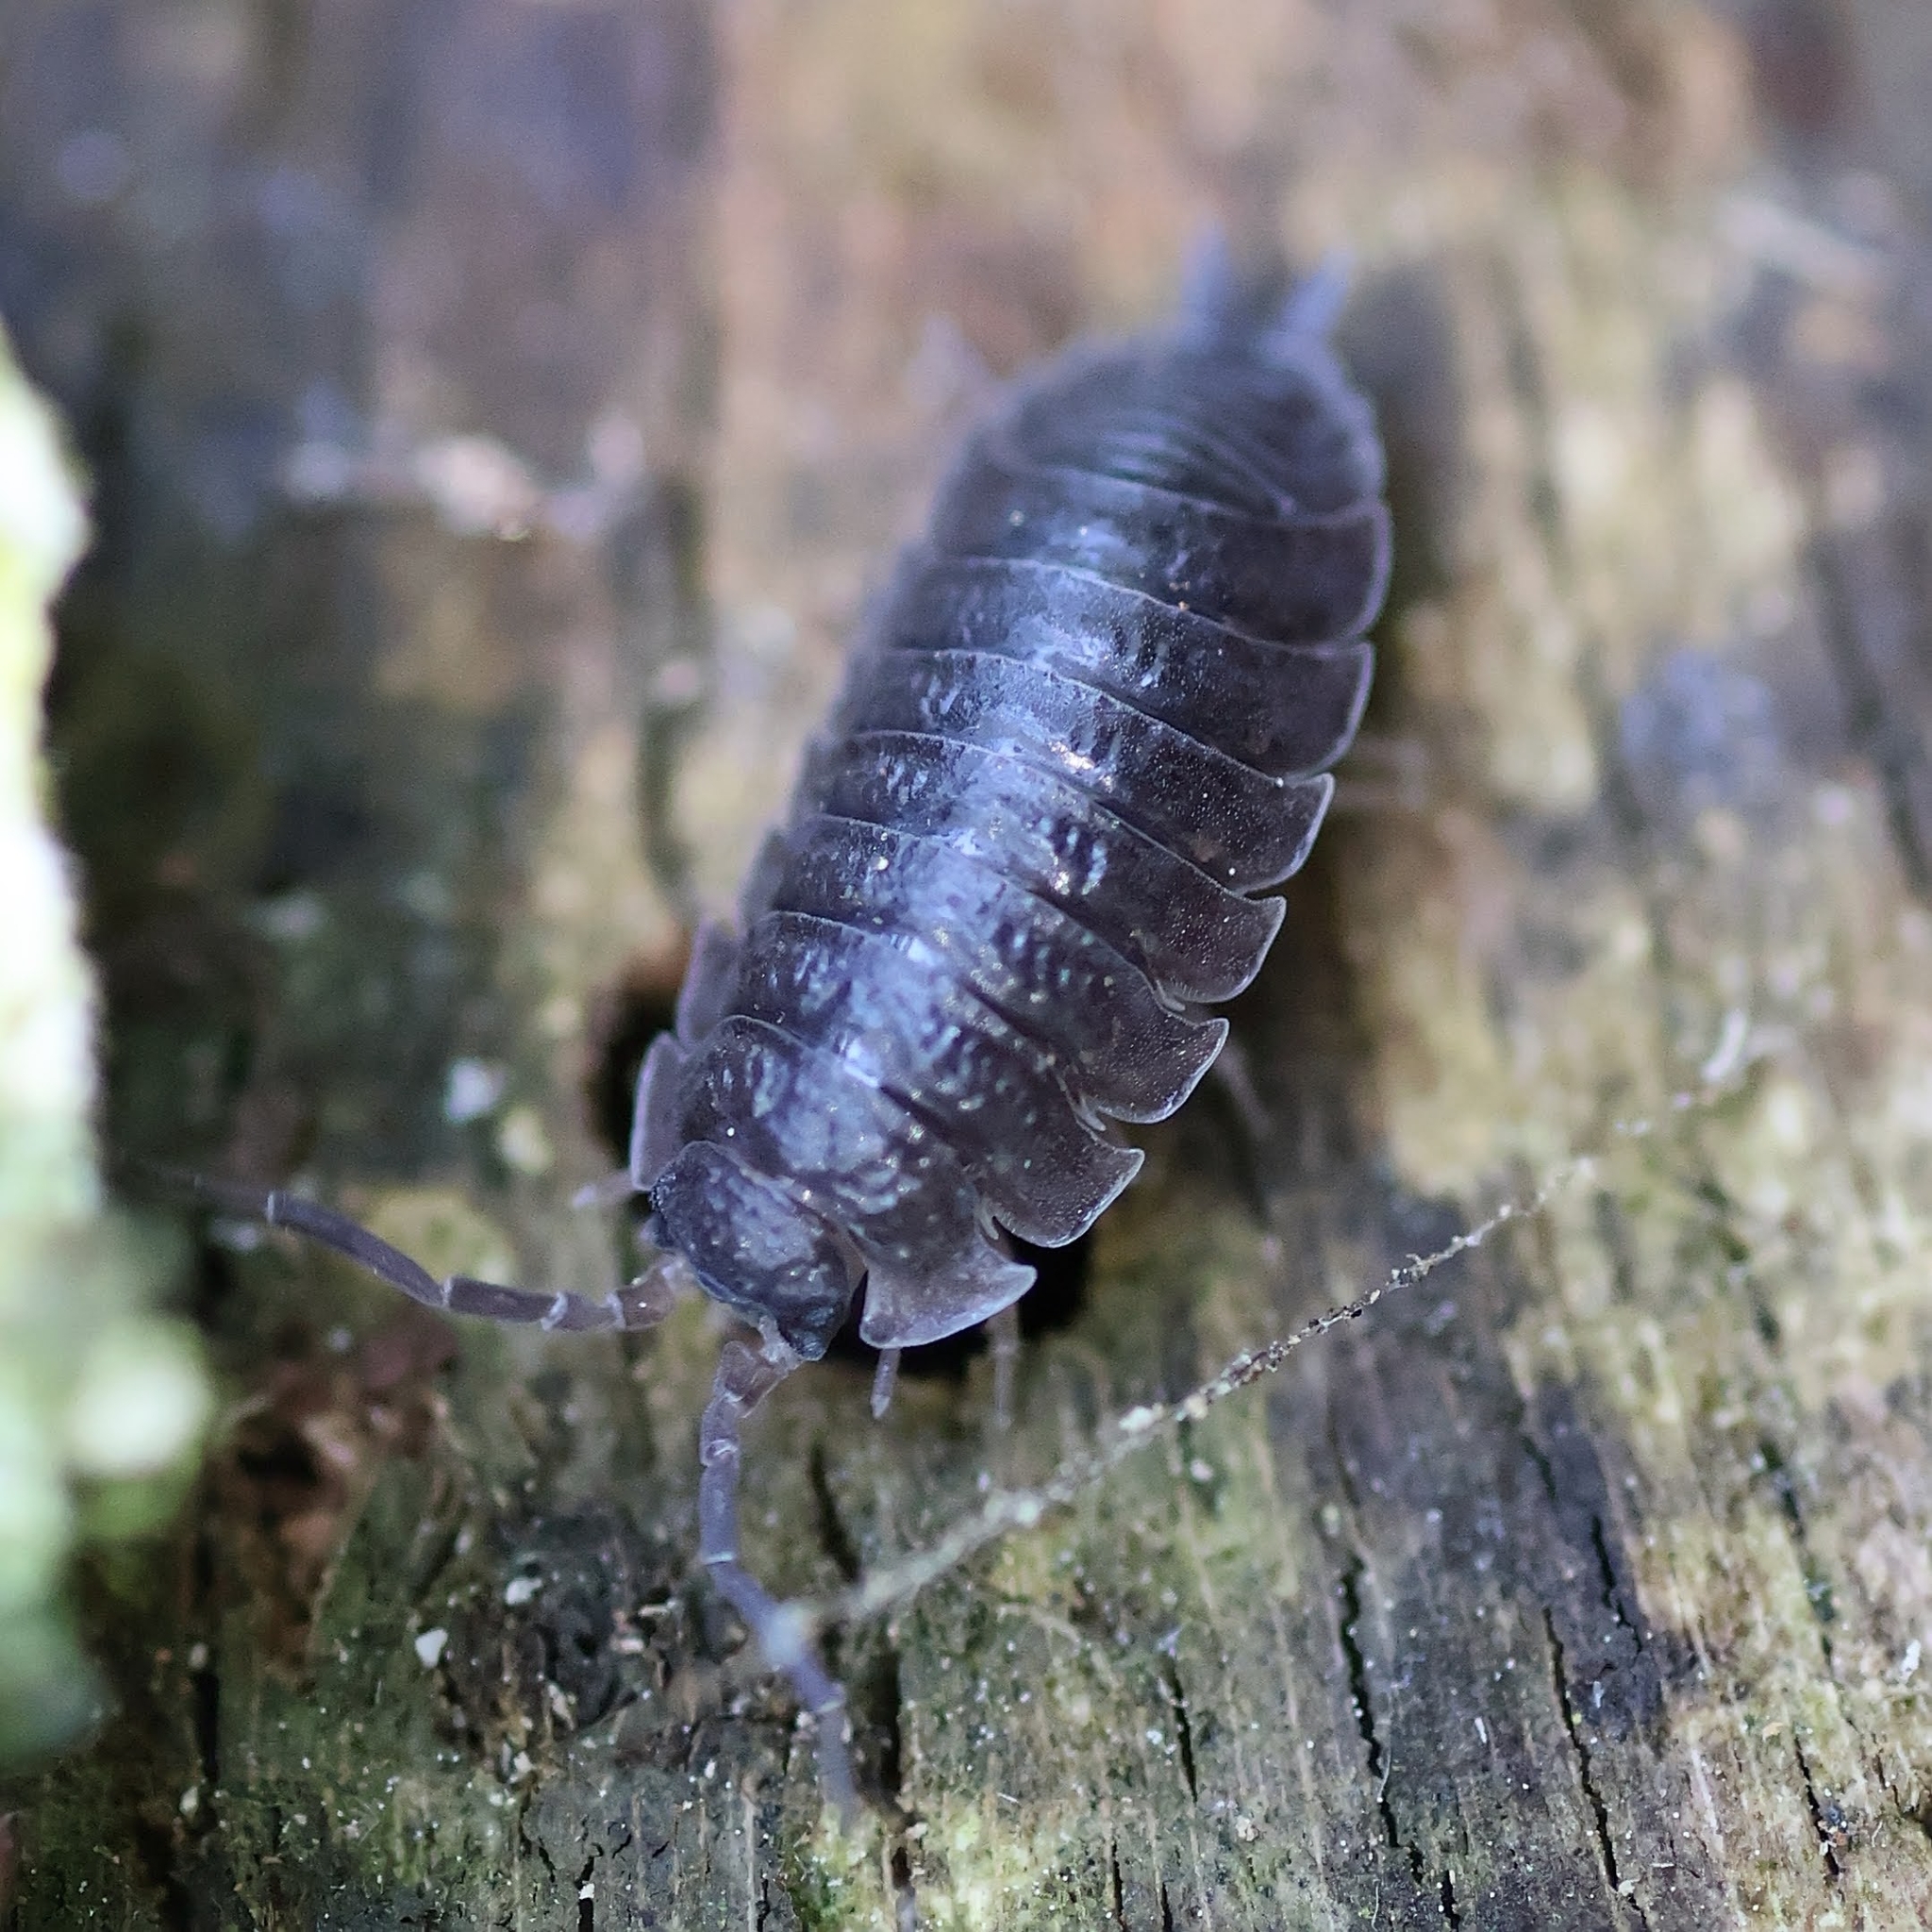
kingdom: Animalia
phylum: Arthropoda
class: Malacostraca
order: Isopoda
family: Porcellionidae
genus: Porcellio
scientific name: Porcellio scaber
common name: Common rough woodlouse
